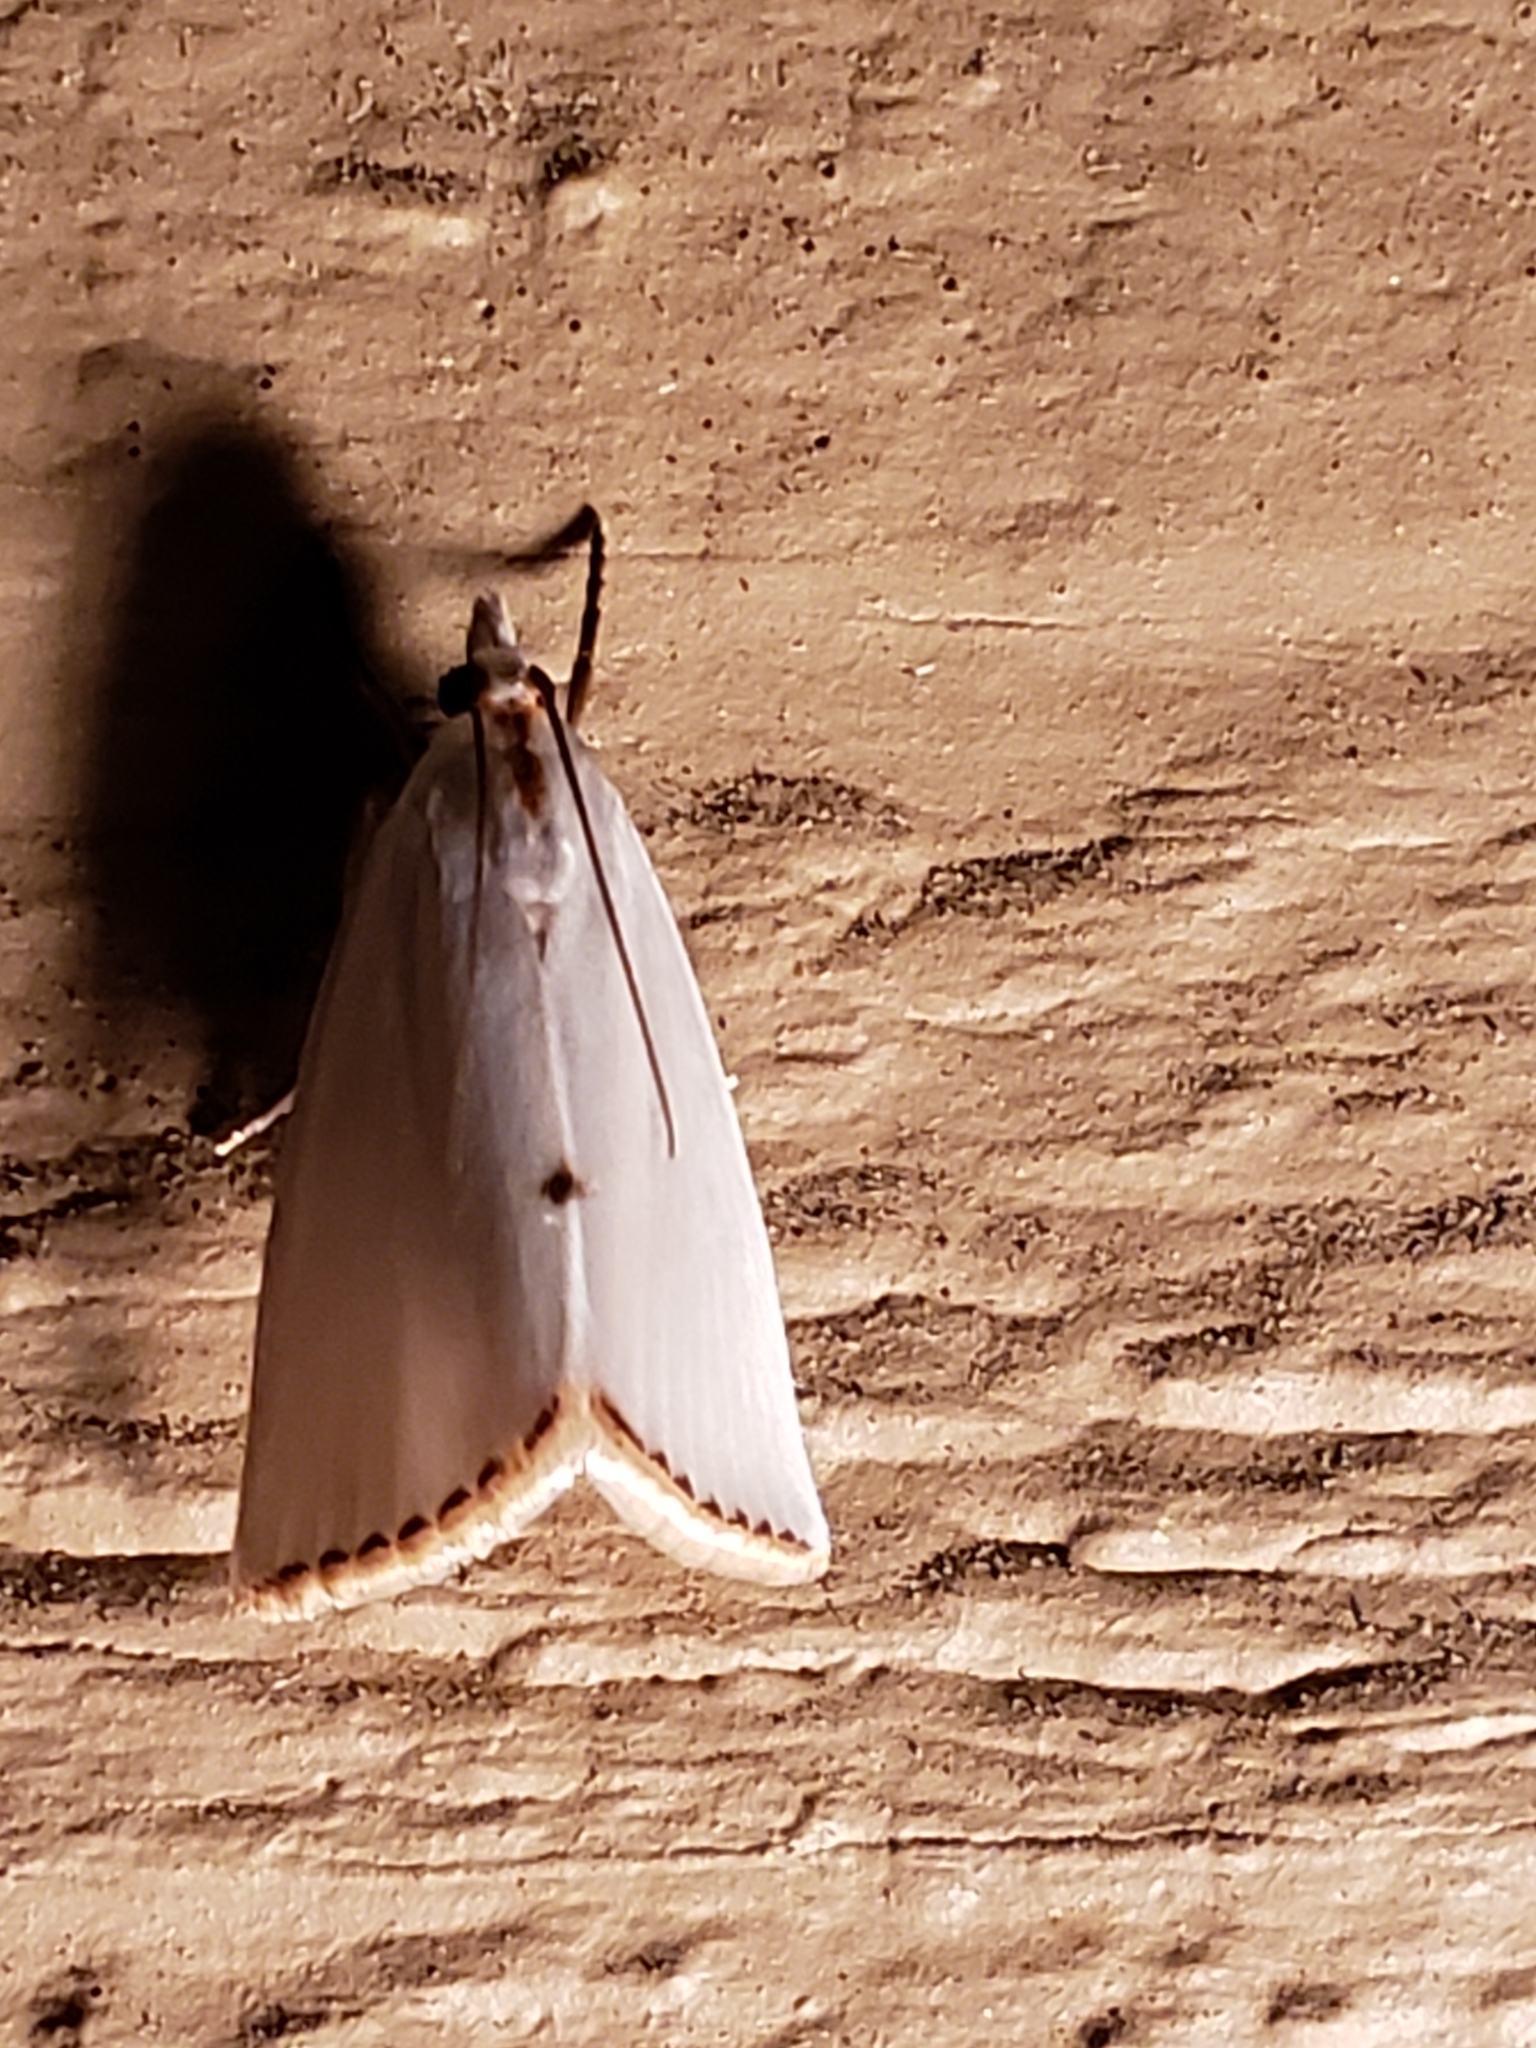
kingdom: Animalia
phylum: Arthropoda
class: Insecta
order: Lepidoptera
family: Crambidae
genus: Argyria
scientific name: Argyria nivalis
